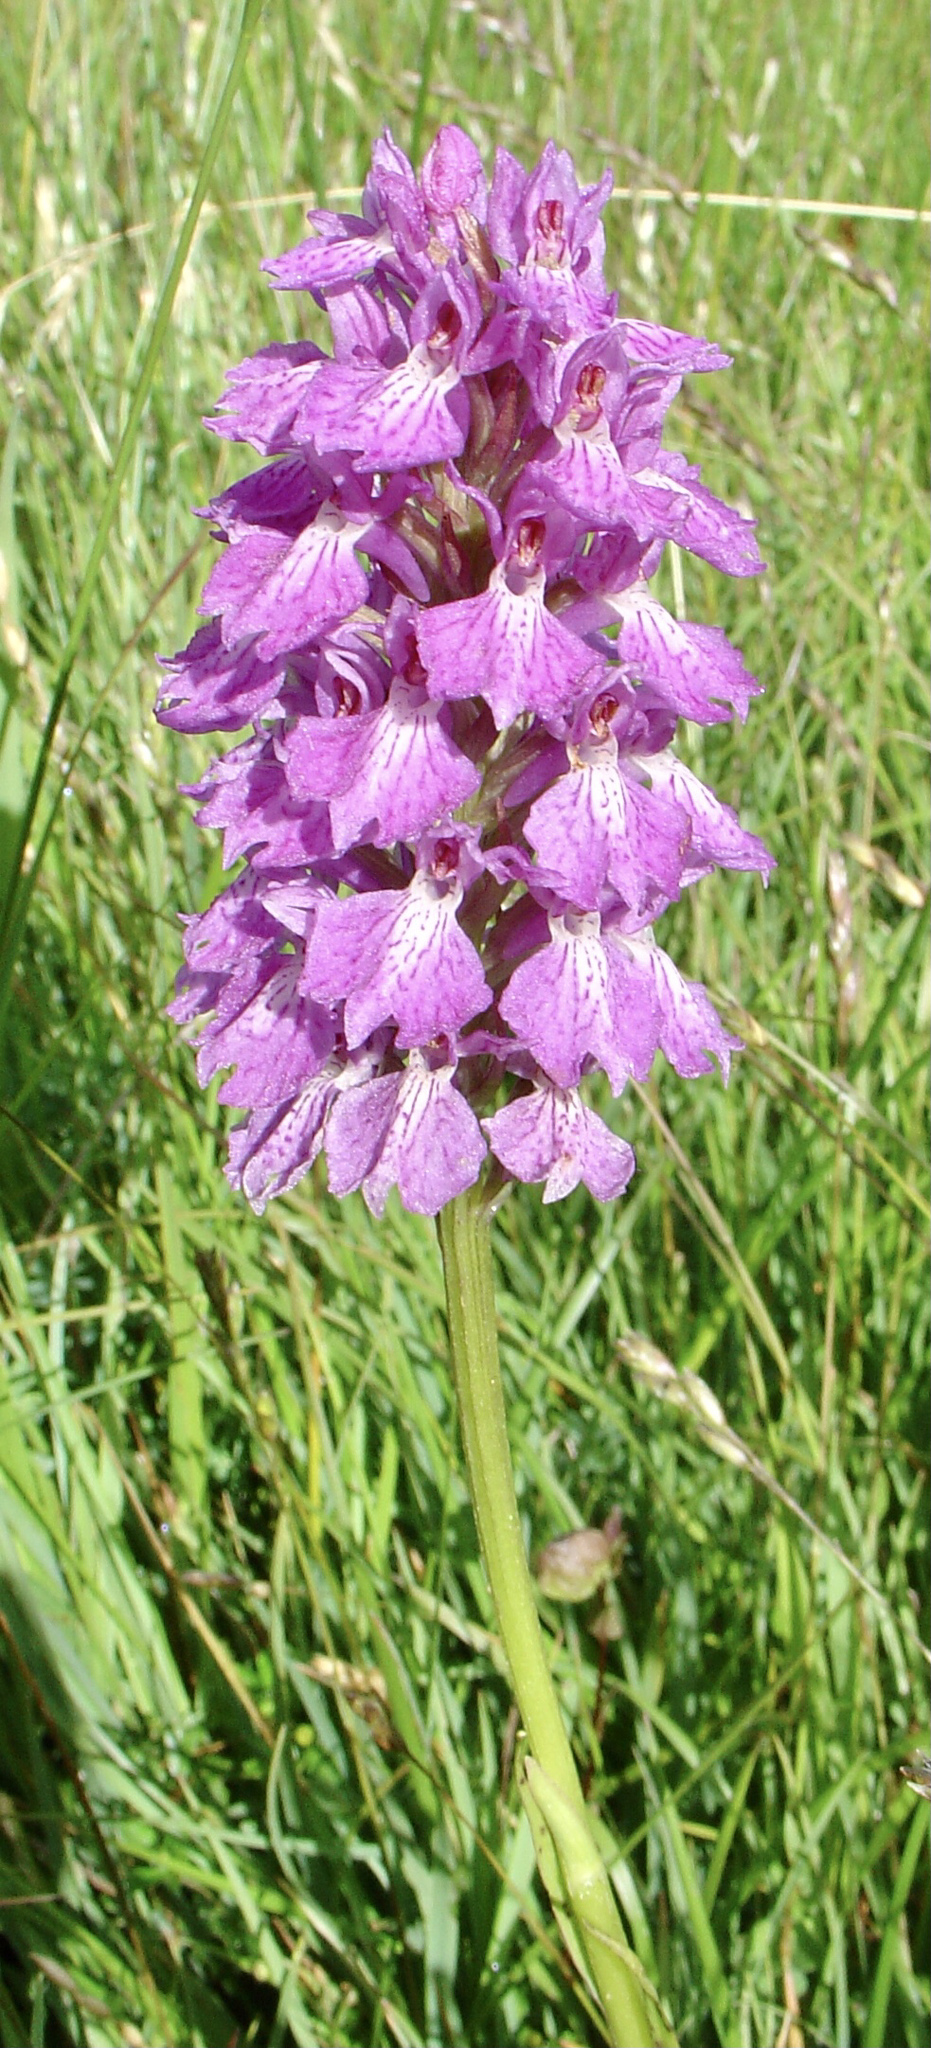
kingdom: Plantae
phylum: Tracheophyta
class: Liliopsida
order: Asparagales
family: Orchidaceae
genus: Dactylorhiza
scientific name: Dactylorhiza maculata
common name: Heath spotted-orchid
